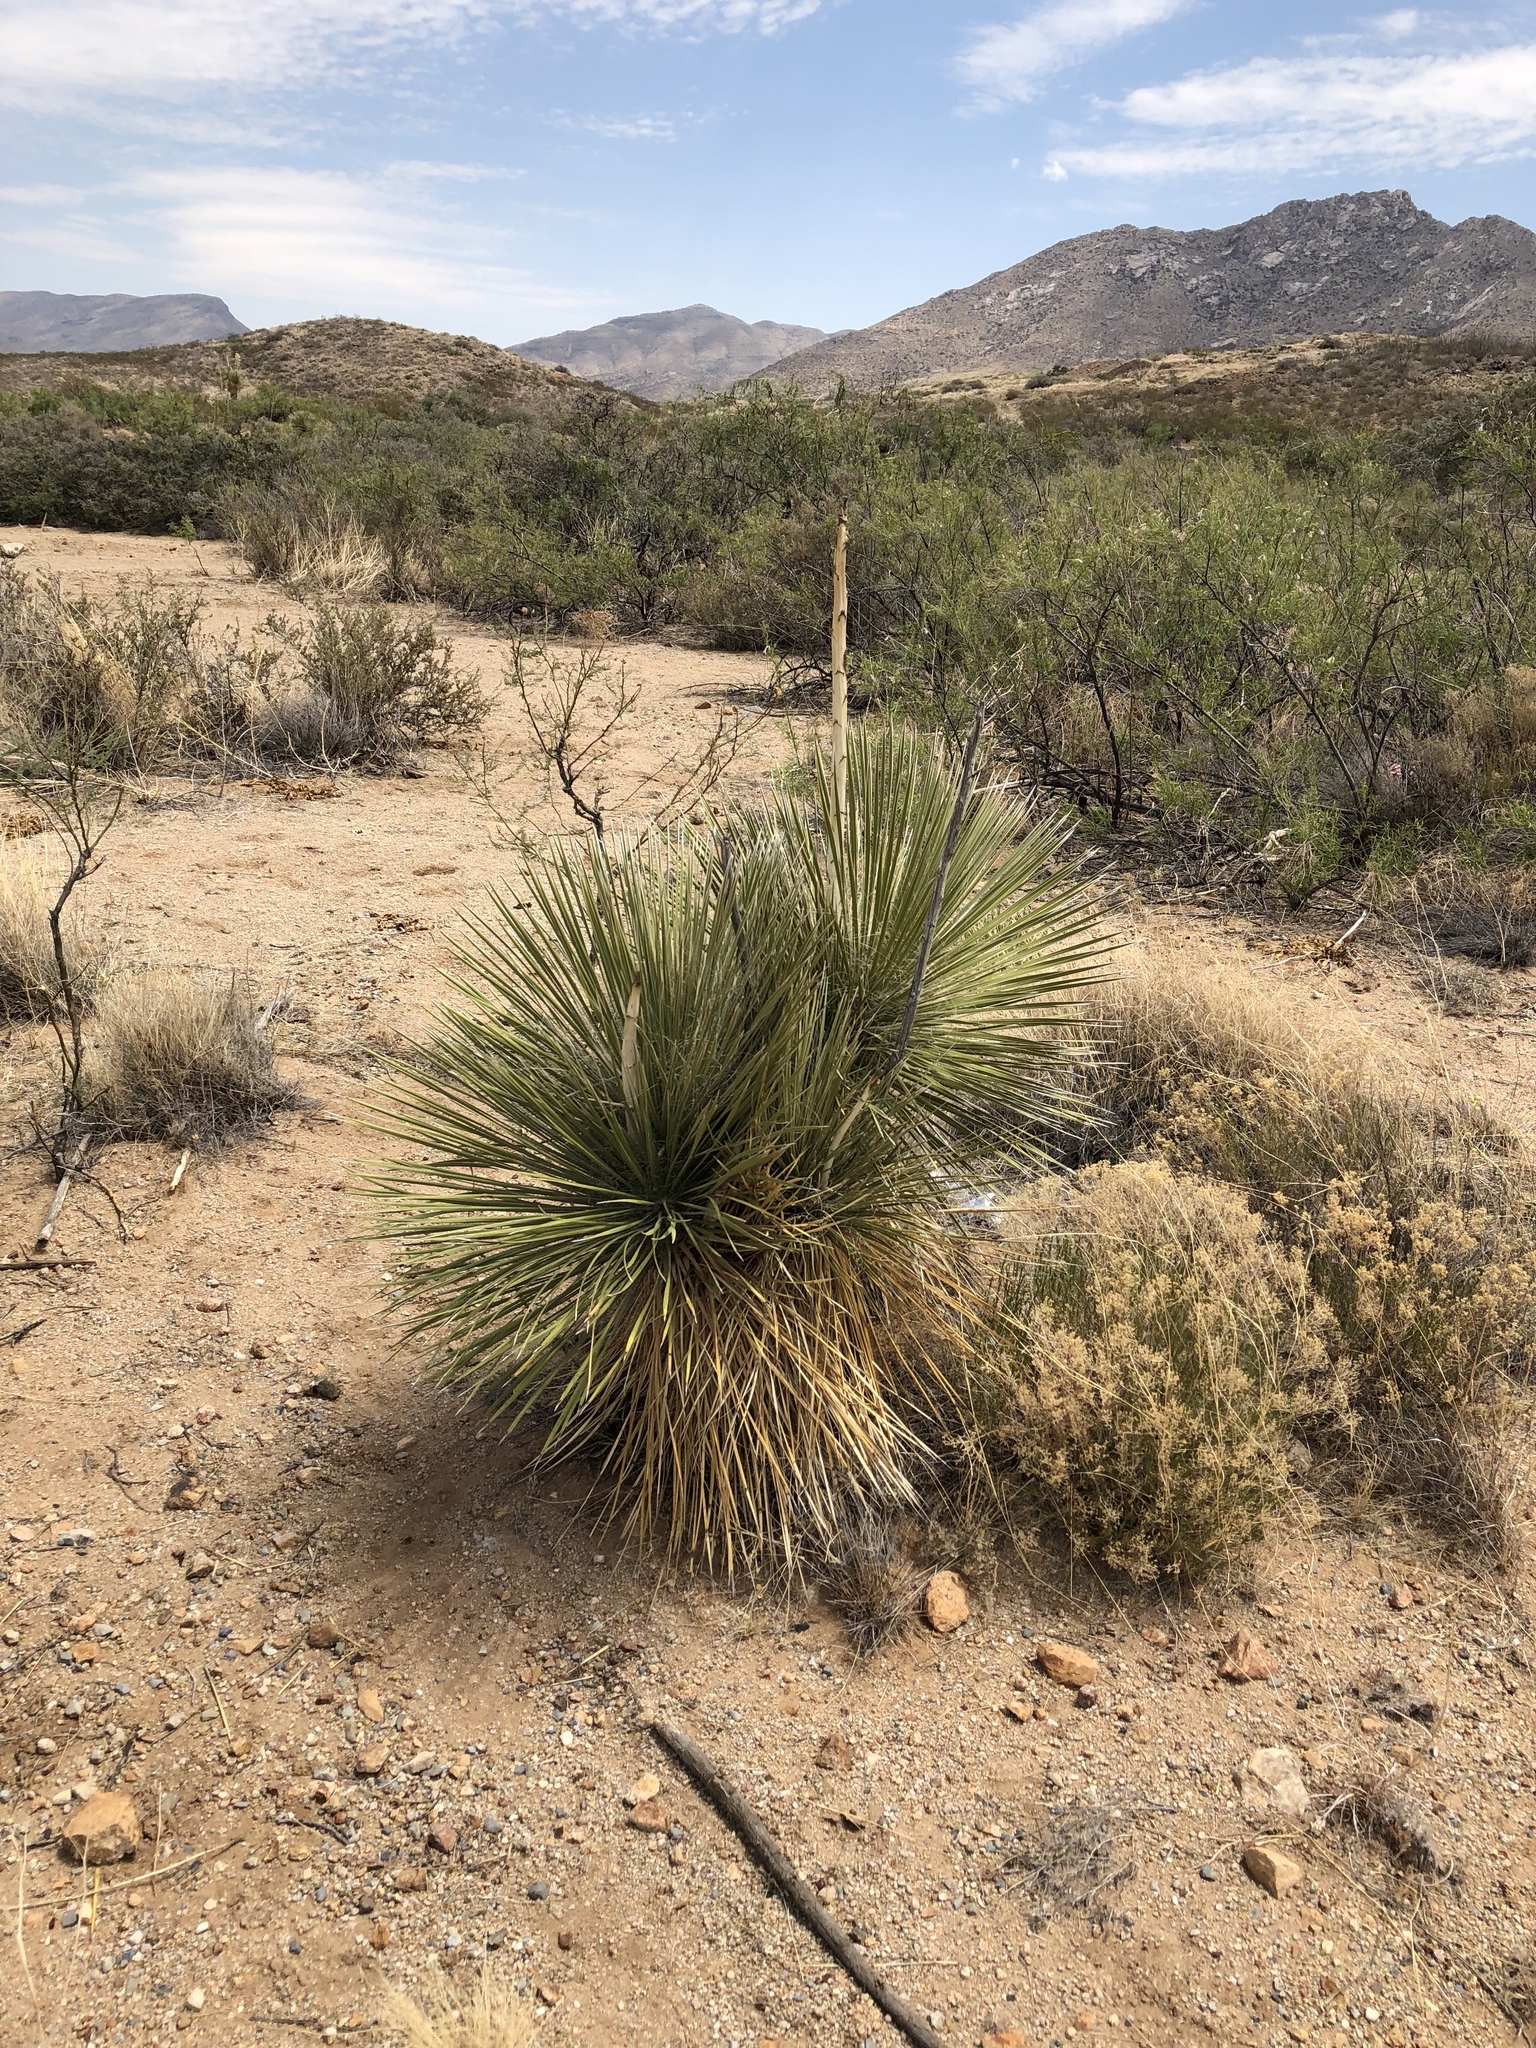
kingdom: Plantae
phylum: Tracheophyta
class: Liliopsida
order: Asparagales
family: Asparagaceae
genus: Yucca
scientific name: Yucca elata
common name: Palmella
